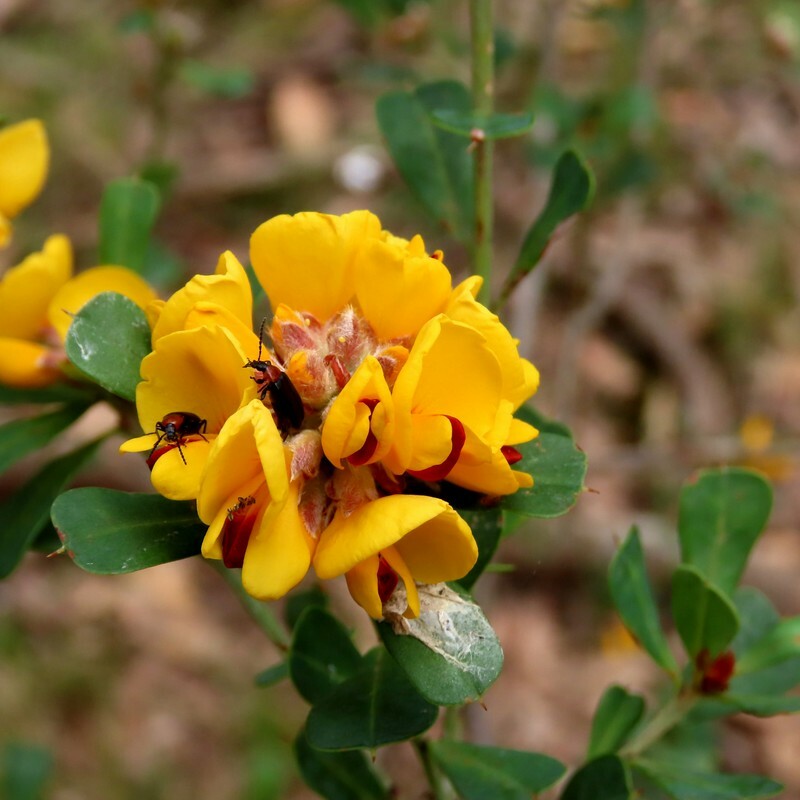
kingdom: Plantae
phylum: Tracheophyta
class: Magnoliopsida
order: Fabales
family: Fabaceae
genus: Pultenaea
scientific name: Pultenaea daphnoides
